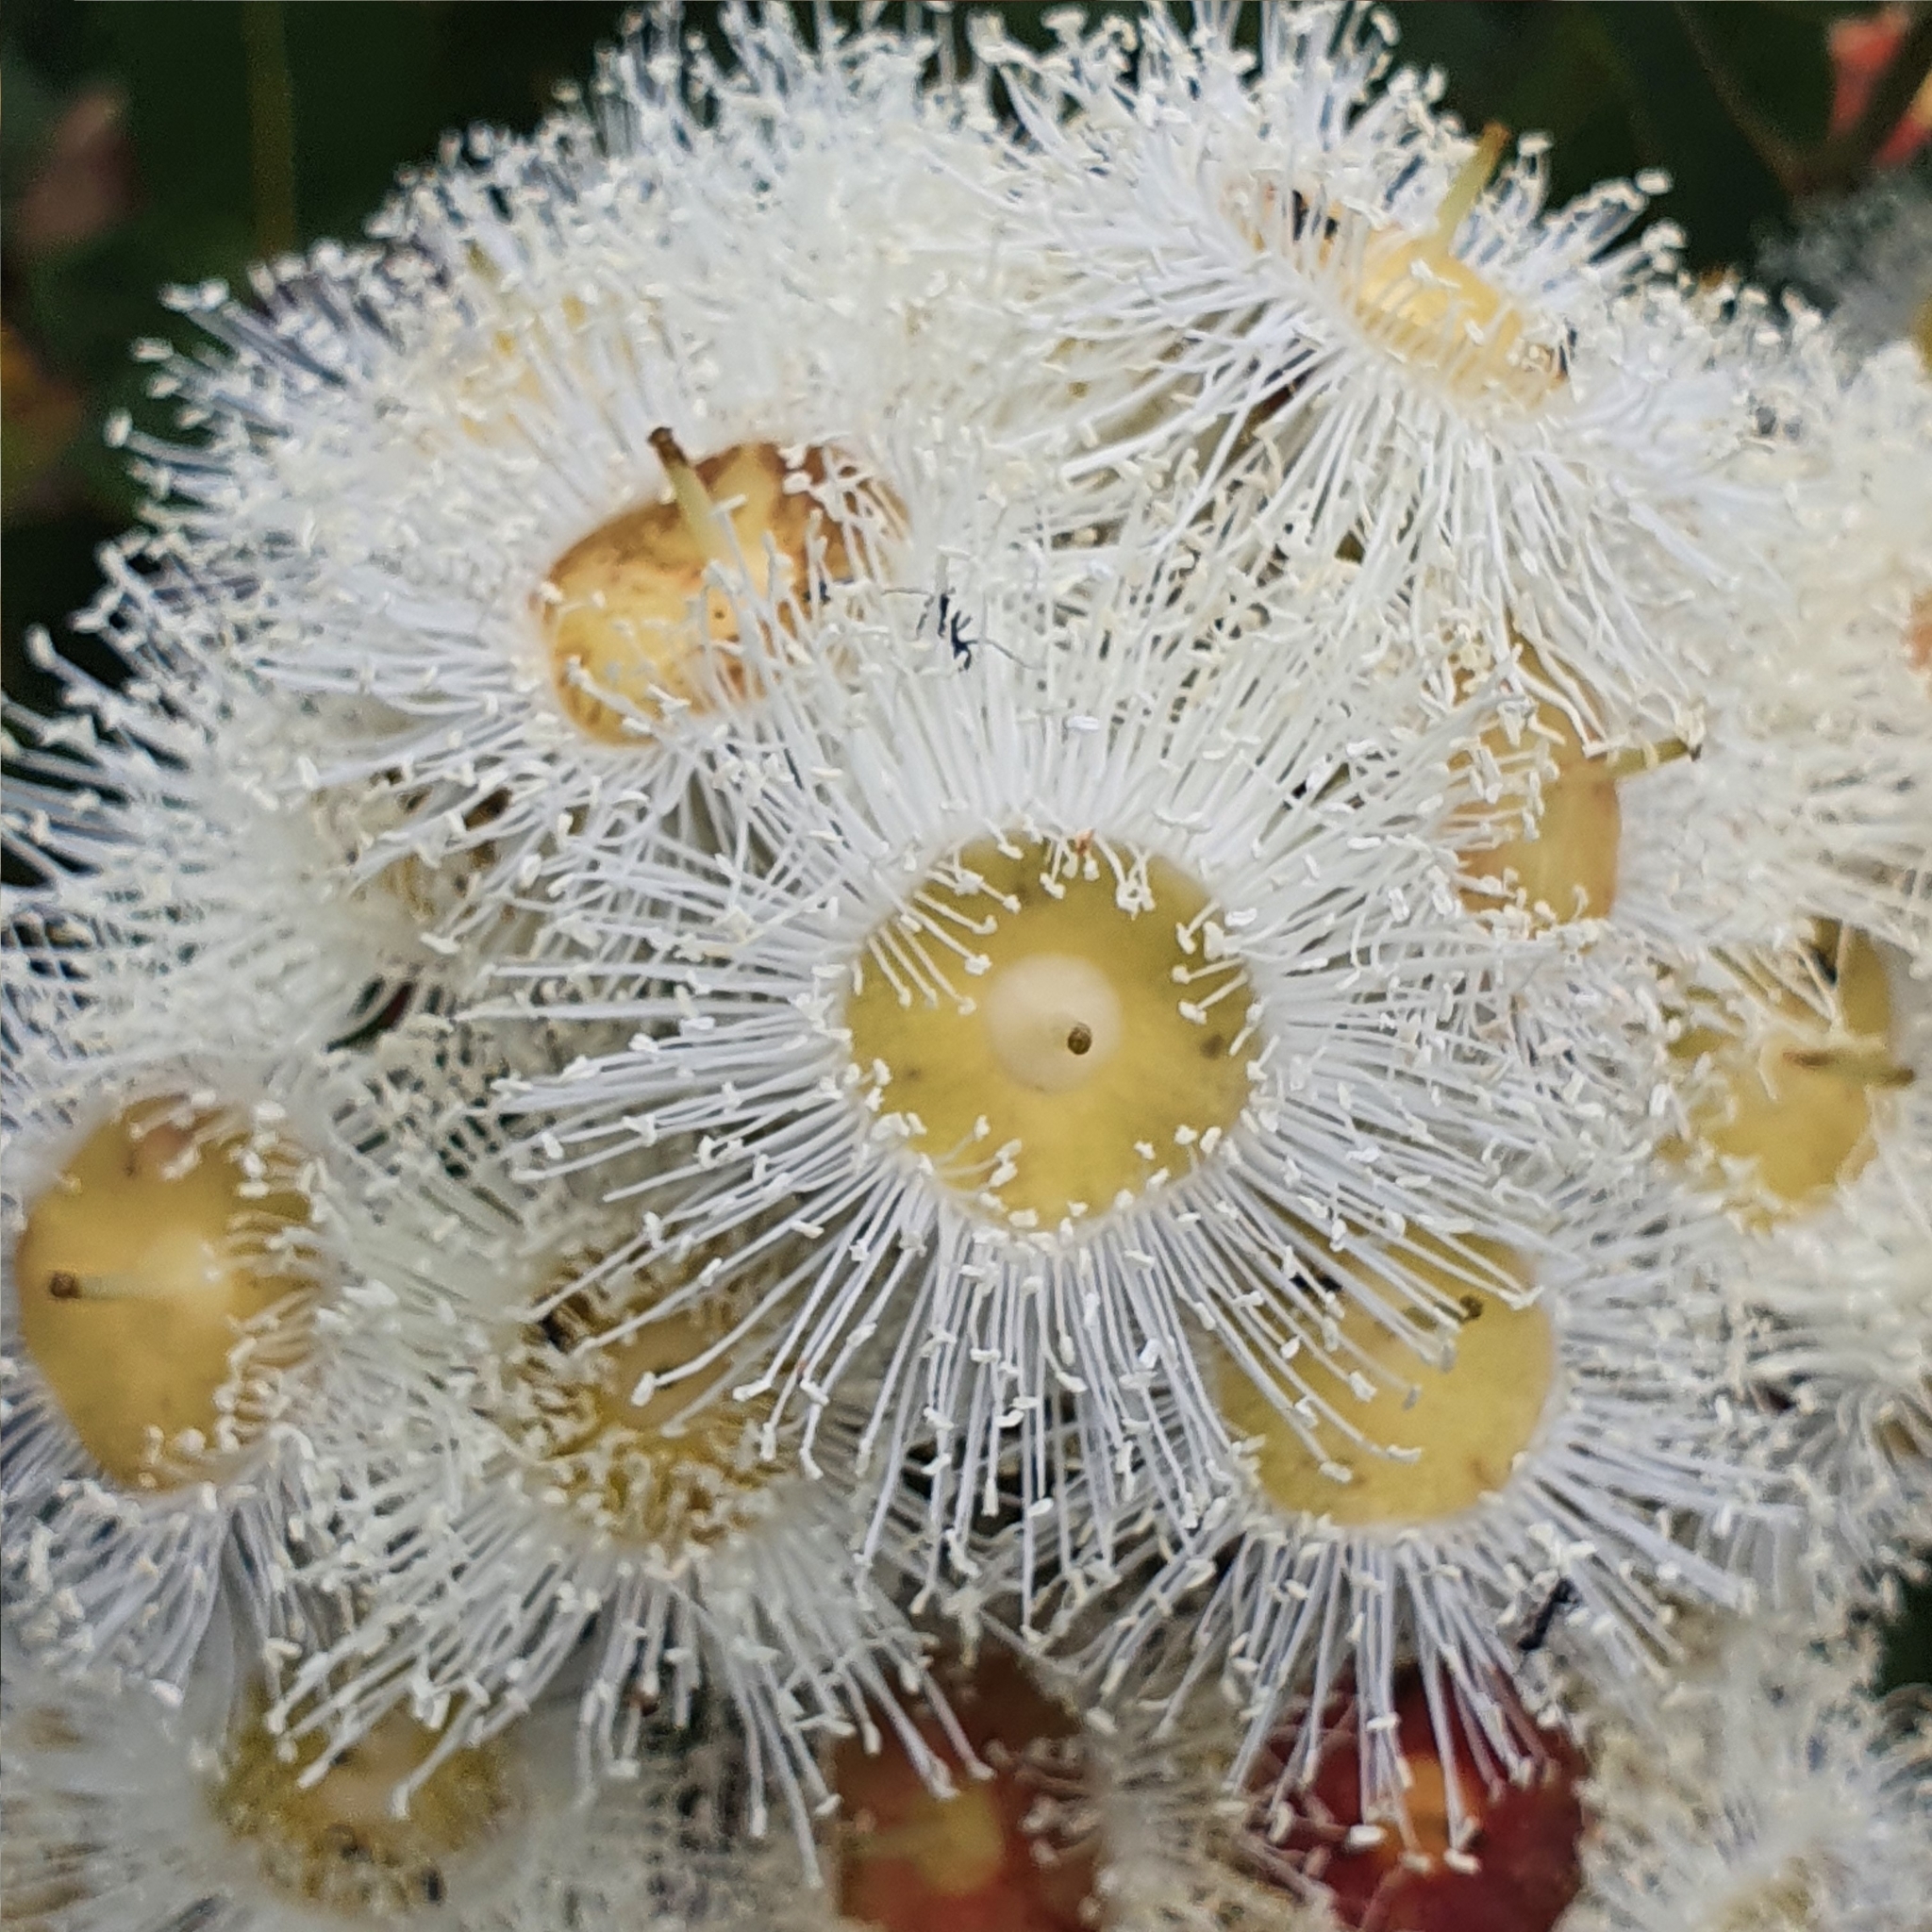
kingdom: Plantae
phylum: Tracheophyta
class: Magnoliopsida
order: Myrtales
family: Myrtaceae
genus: Angophora
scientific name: Angophora hispida
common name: Dwarf-apple
